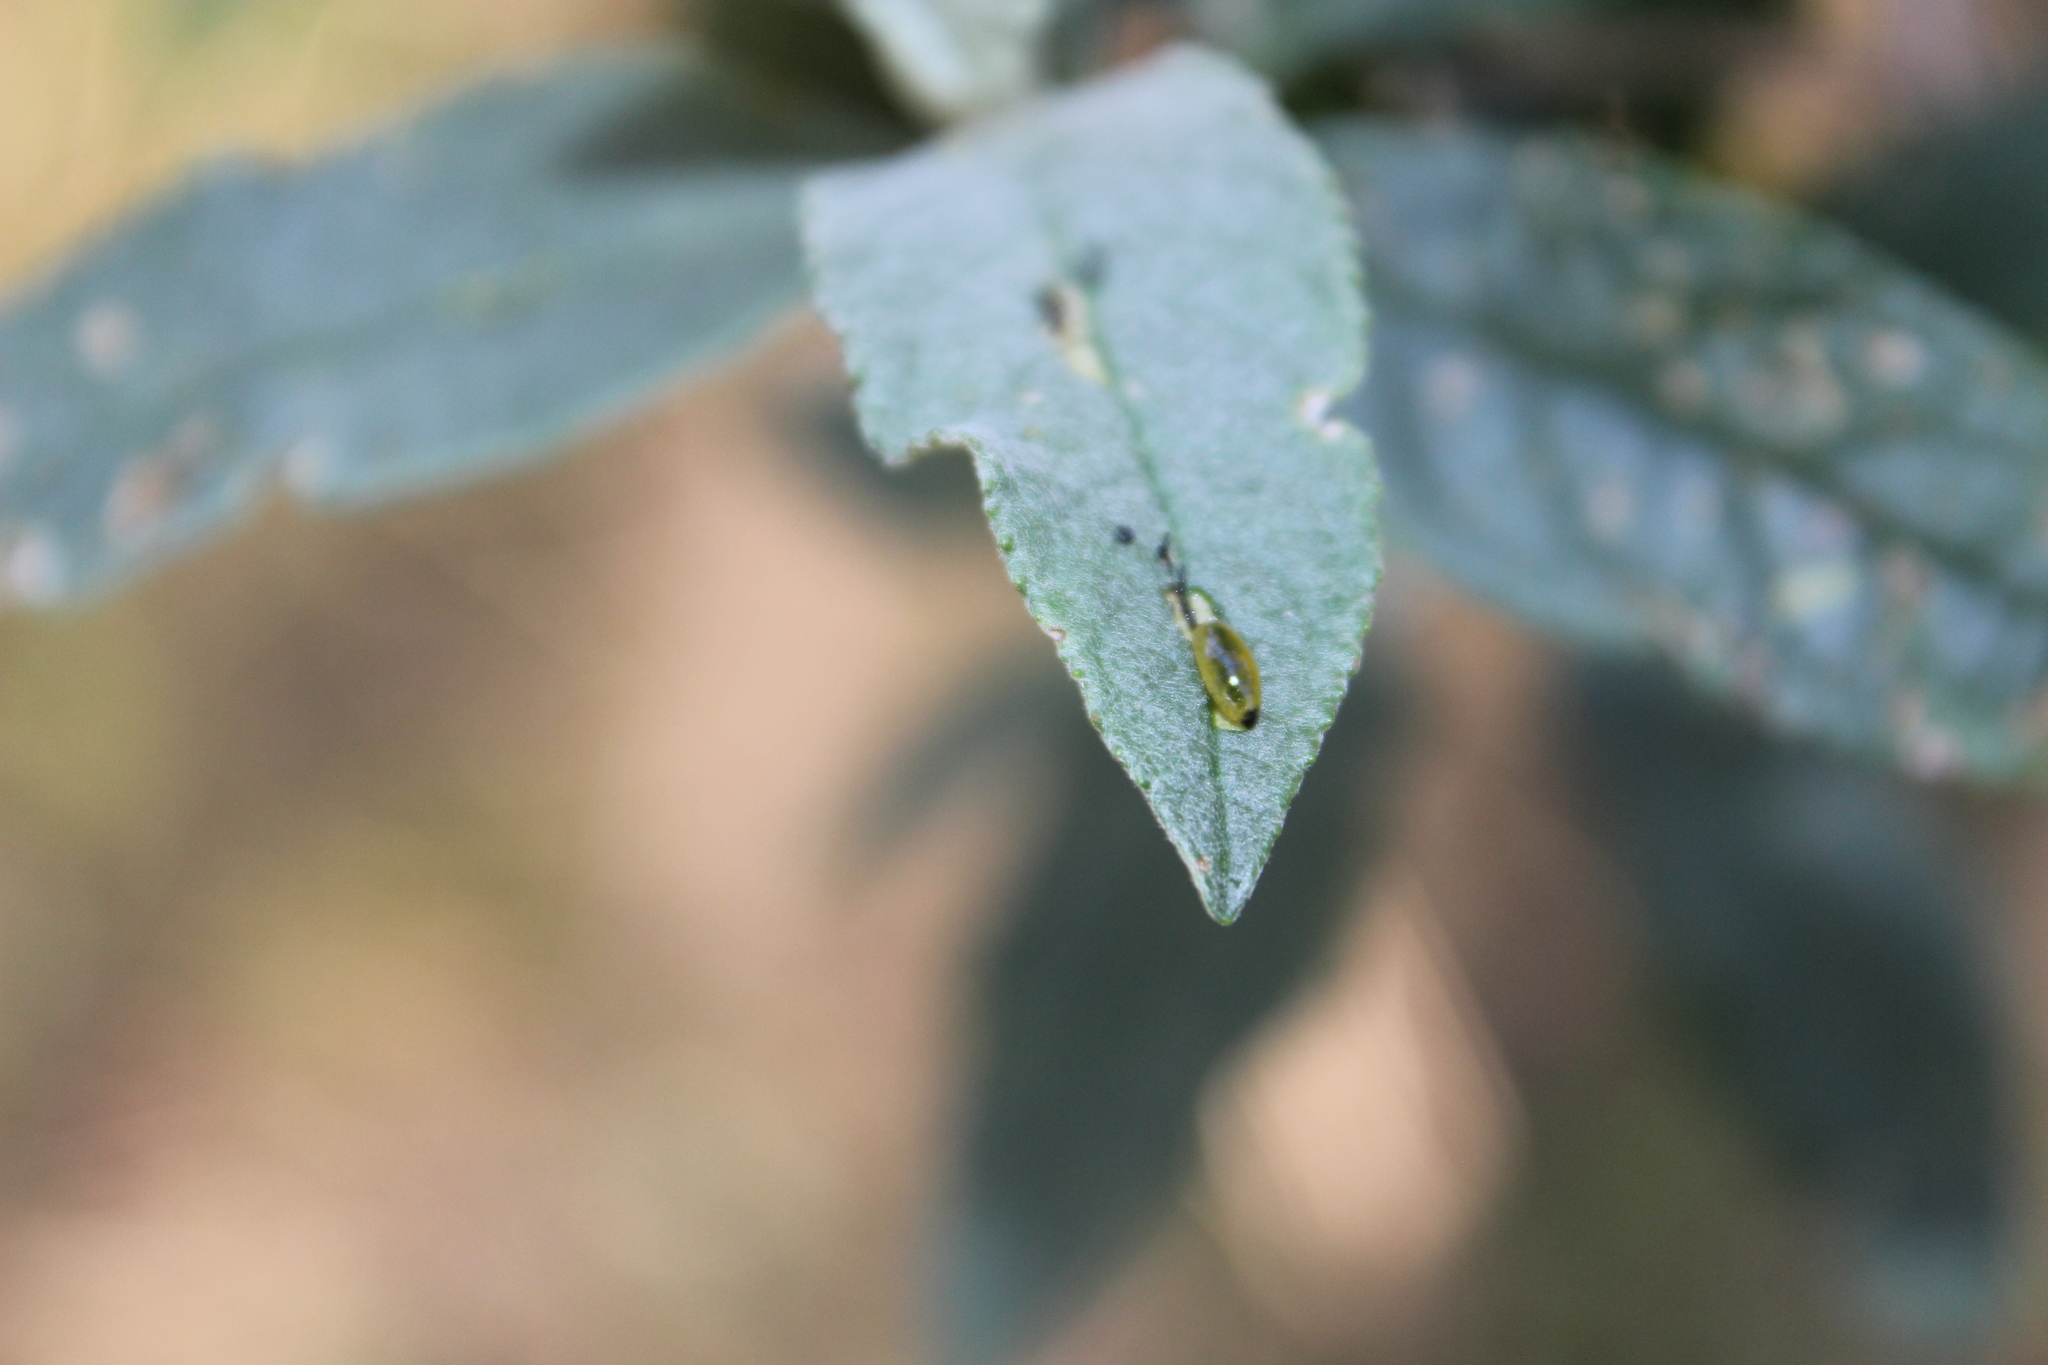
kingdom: Animalia
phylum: Arthropoda
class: Insecta
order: Coleoptera
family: Curculionidae
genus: Cleopus
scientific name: Cleopus japonicus
